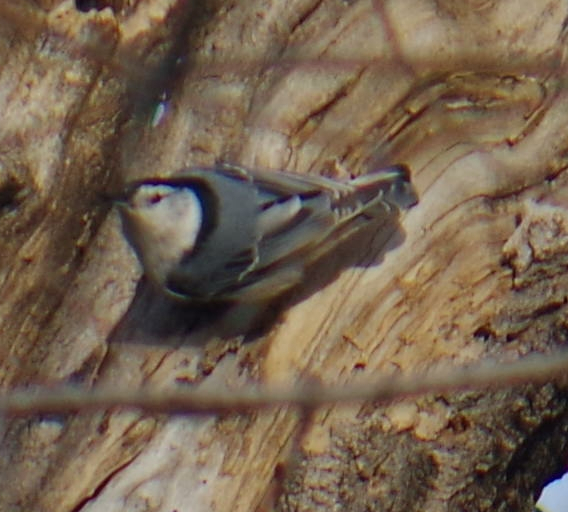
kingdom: Animalia
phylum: Chordata
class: Aves
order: Passeriformes
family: Sittidae
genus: Sitta
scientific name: Sitta carolinensis
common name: White-breasted nuthatch
